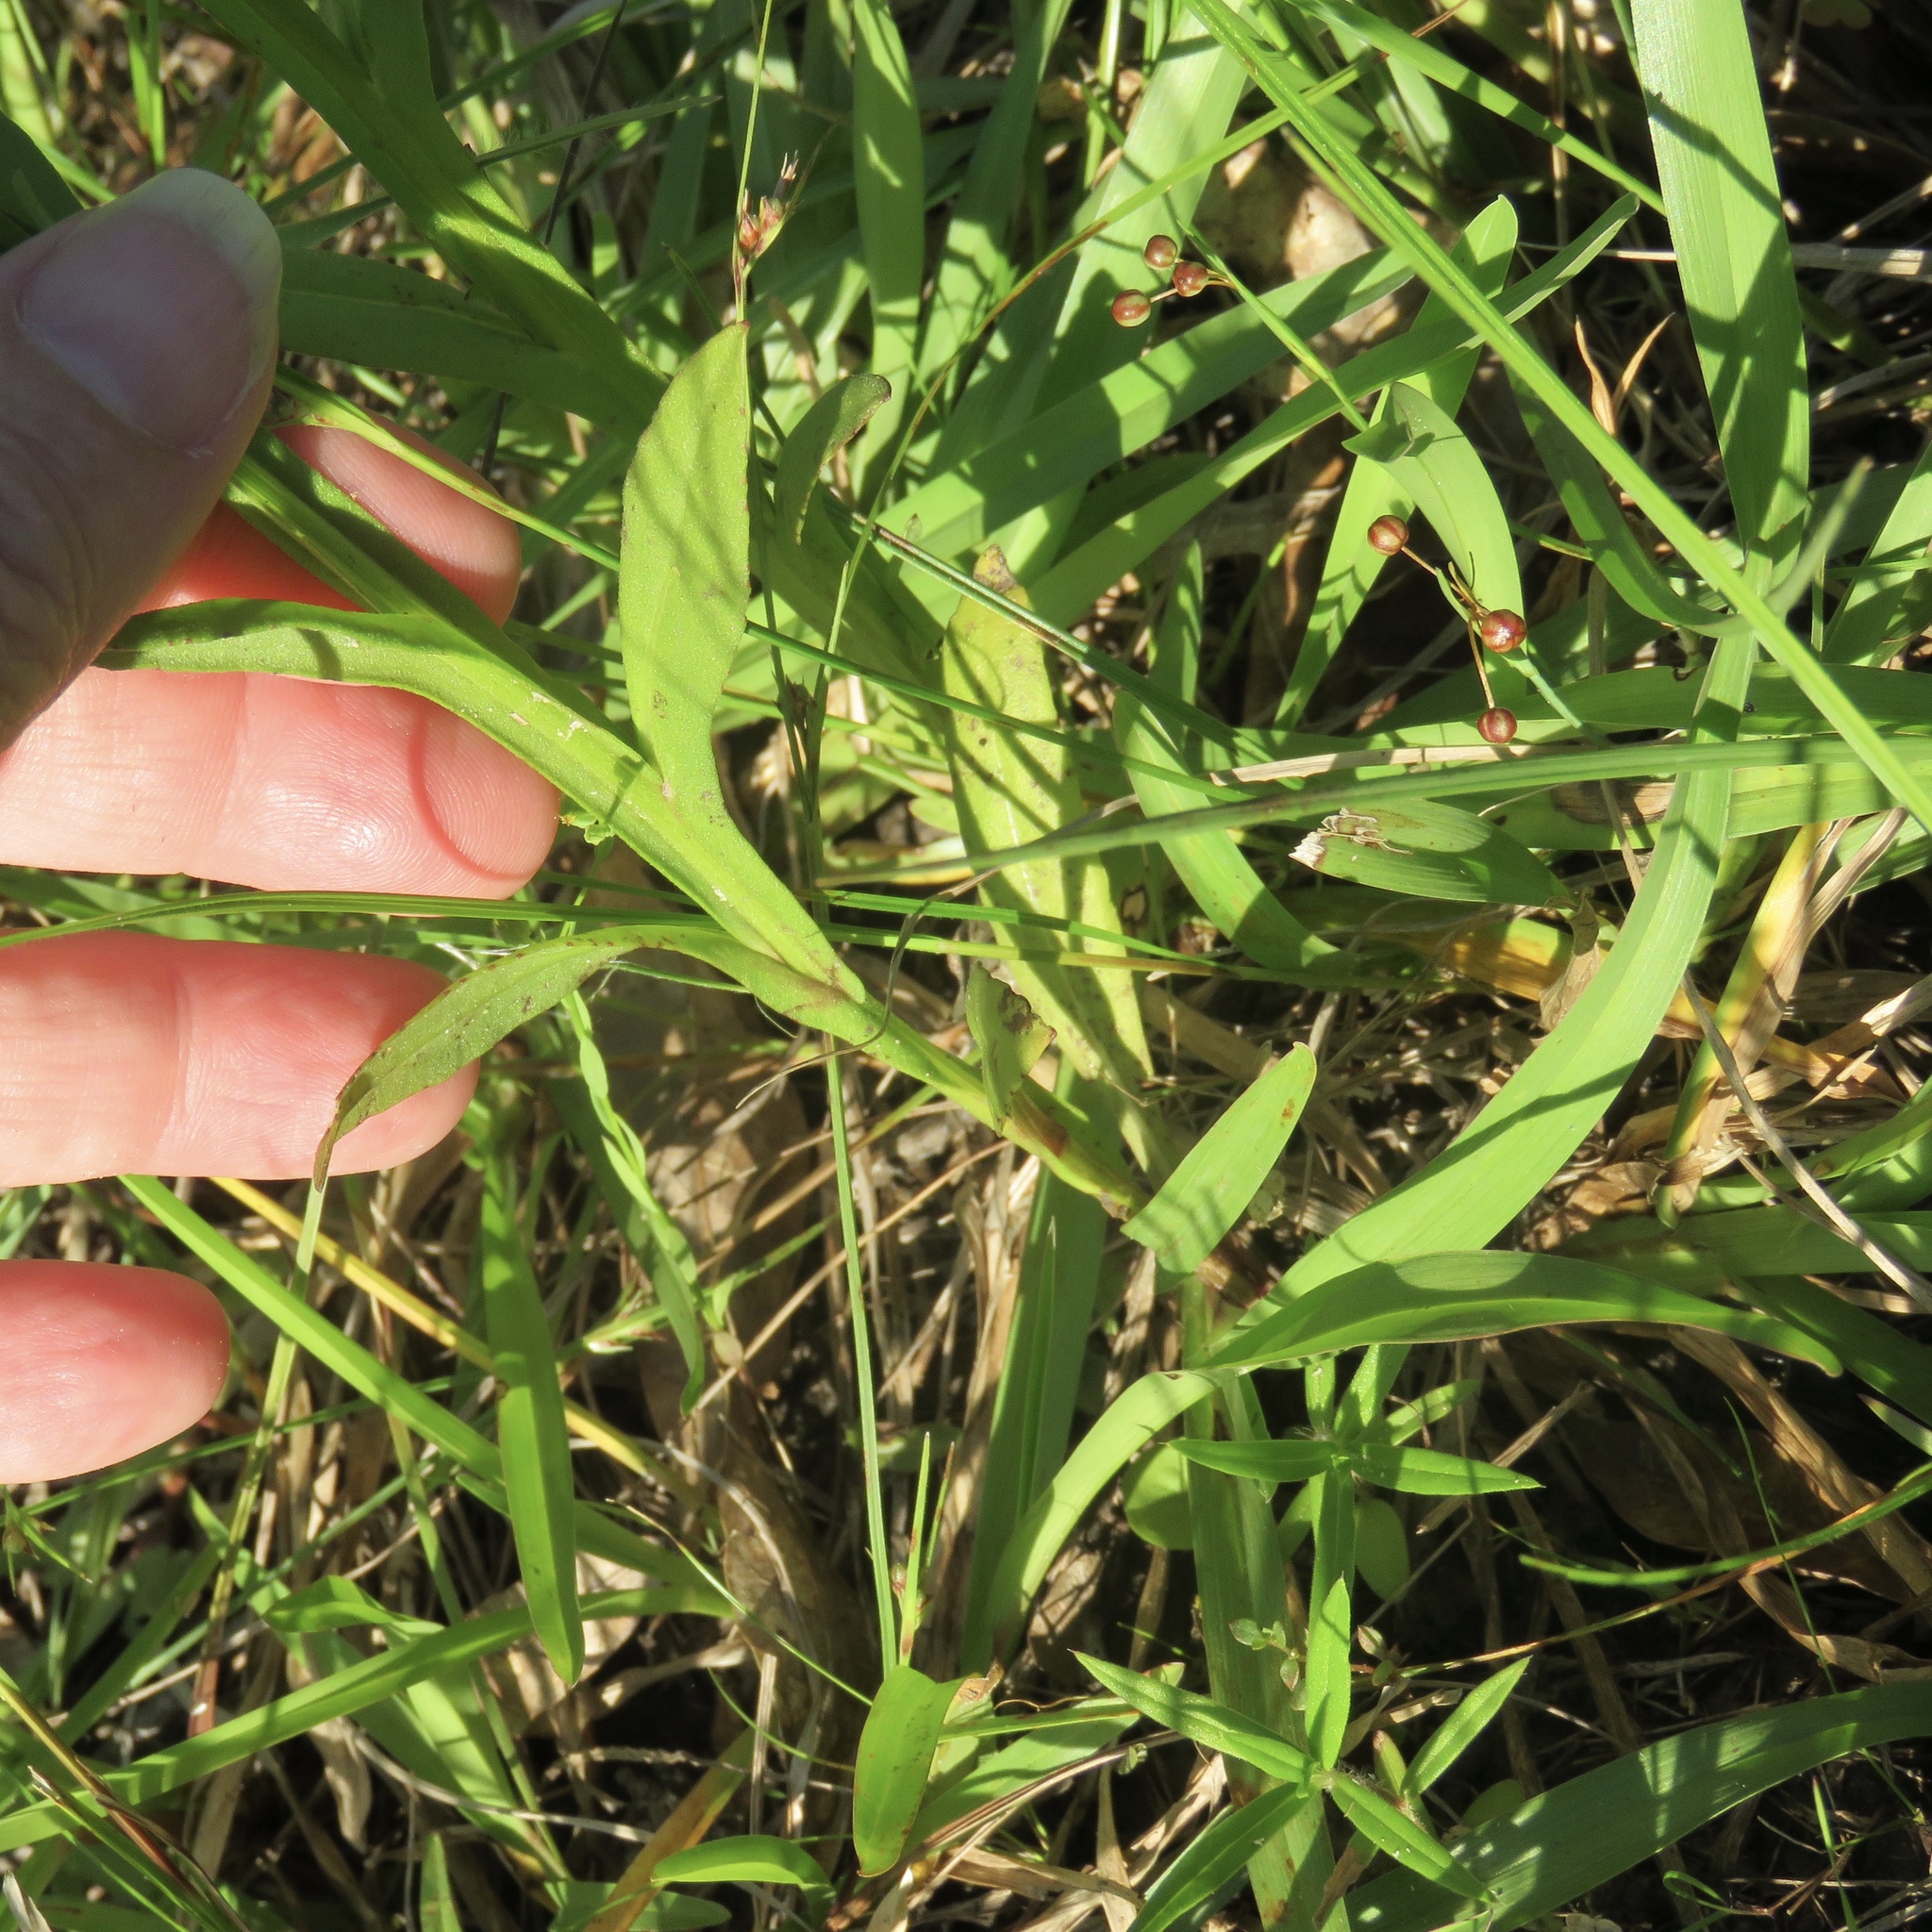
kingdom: Plantae
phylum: Tracheophyta
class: Magnoliopsida
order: Asterales
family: Asteraceae
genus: Helenium
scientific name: Helenium flexuosum
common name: Naked-flowered sneezeweed
